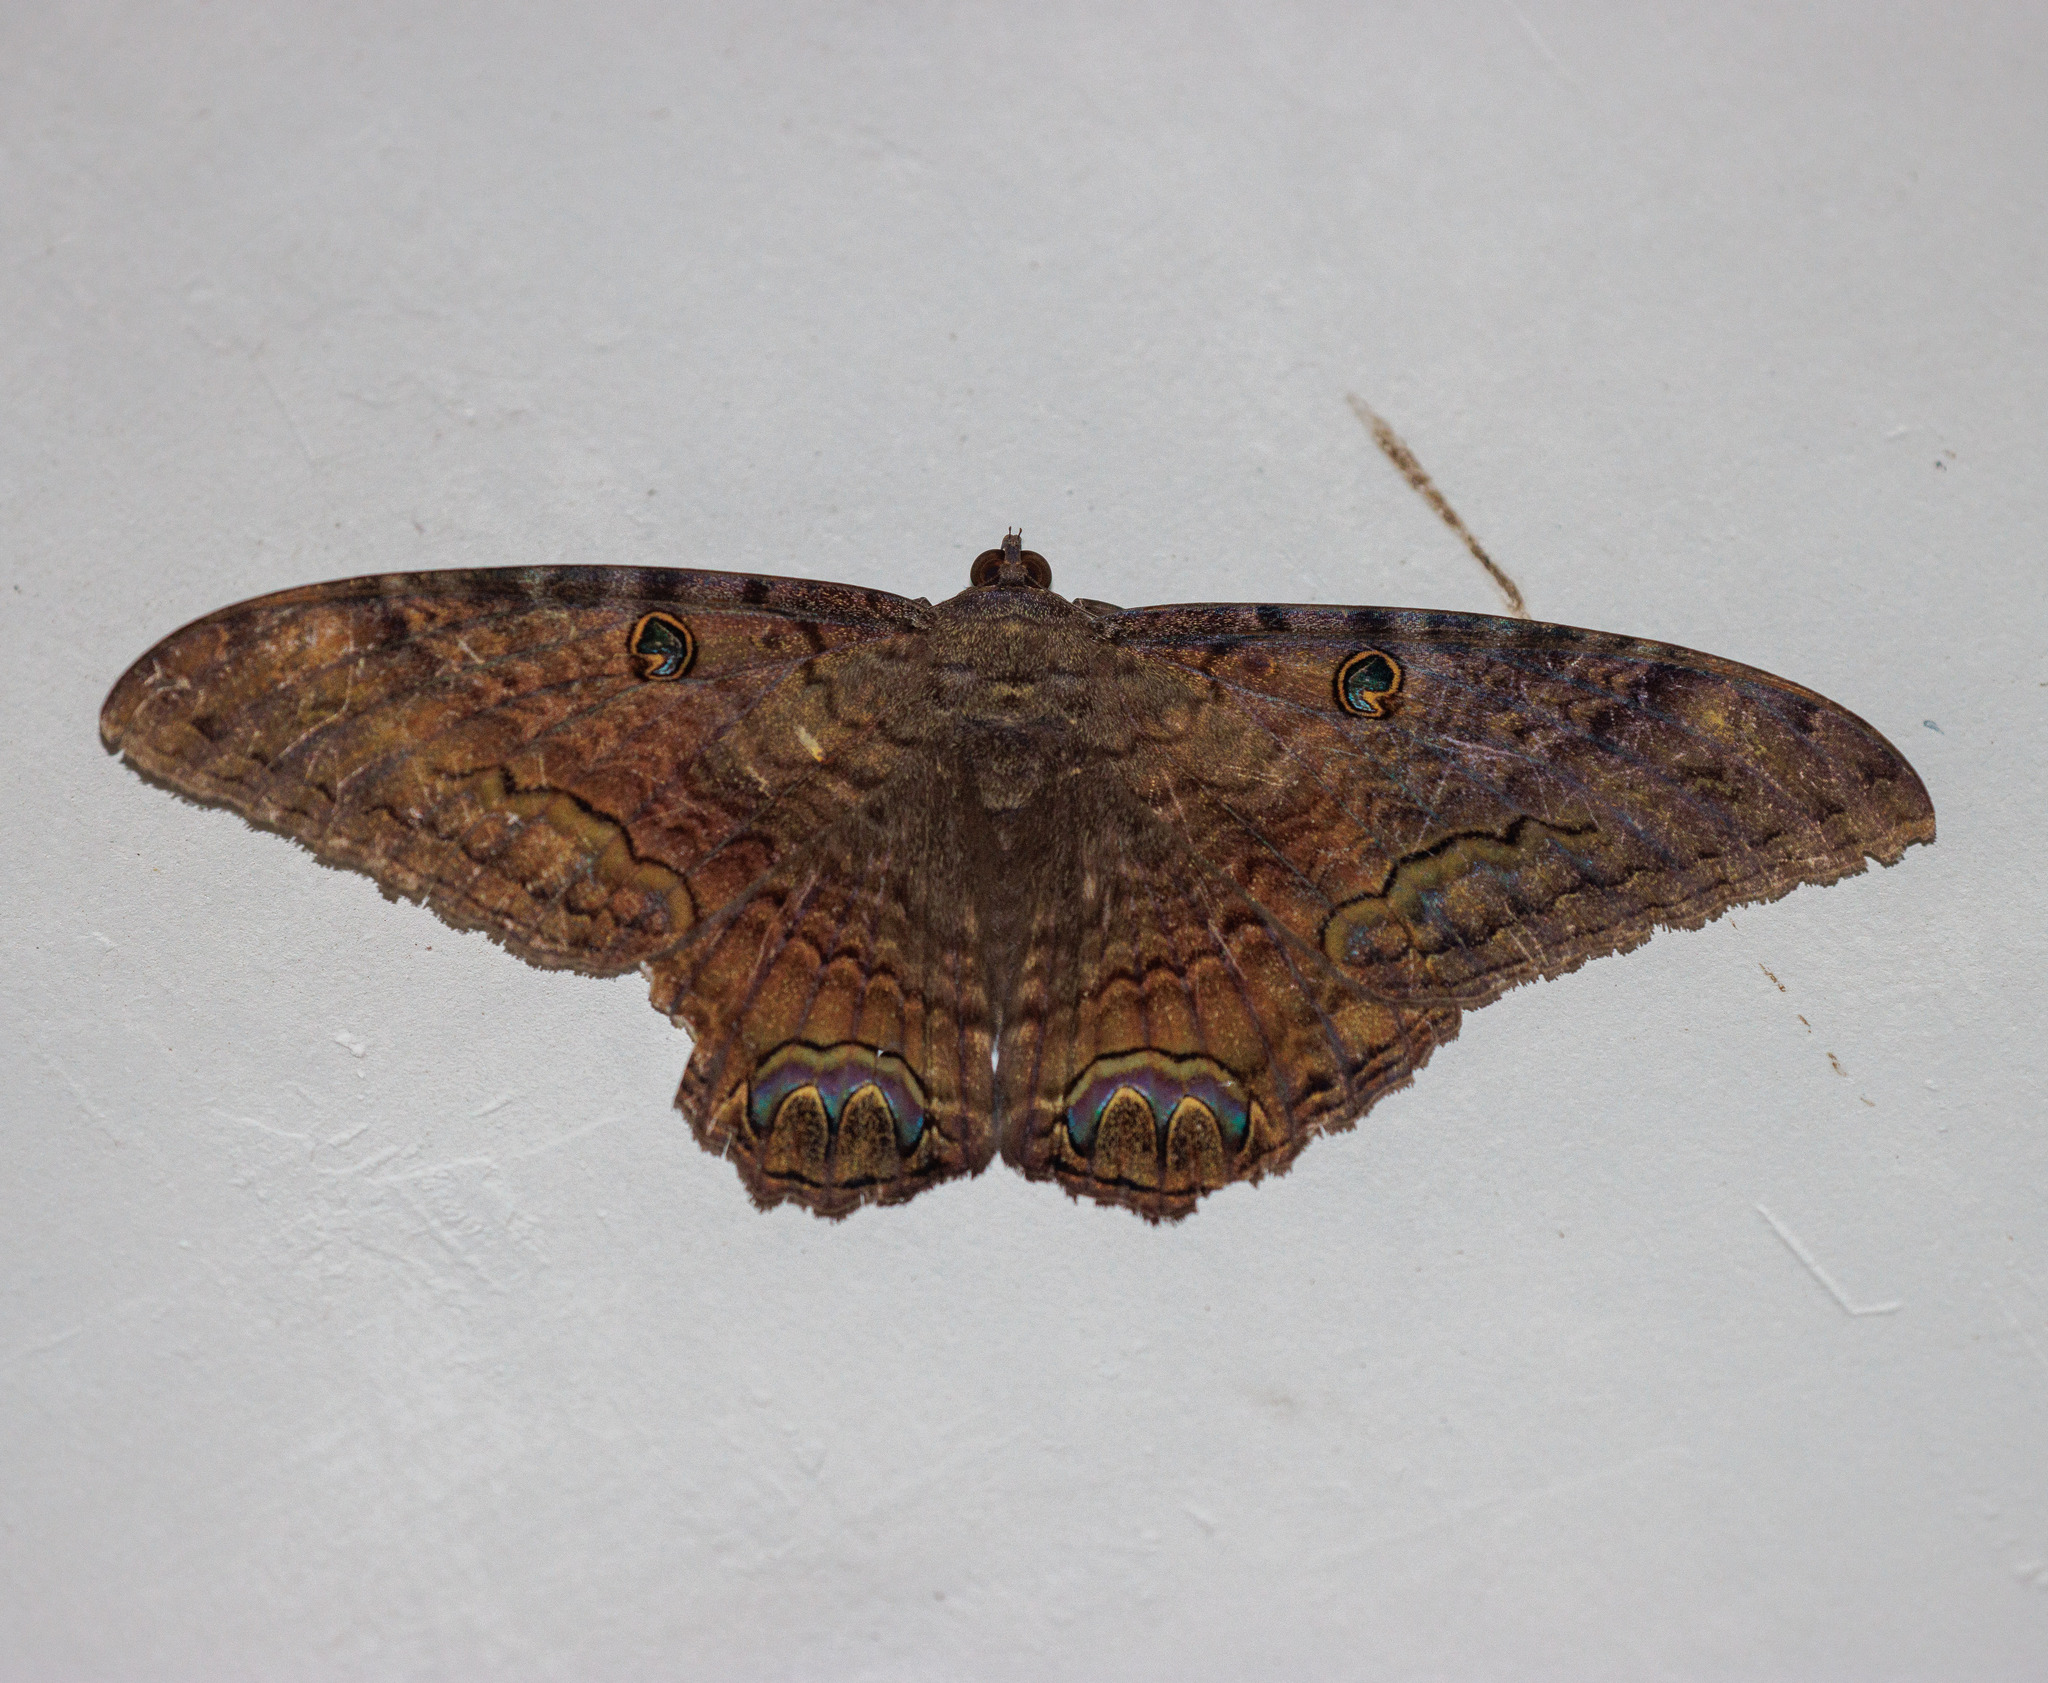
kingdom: Animalia
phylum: Arthropoda
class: Insecta
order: Lepidoptera
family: Erebidae
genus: Ascalapha
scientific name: Ascalapha odorata
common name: Black witch
